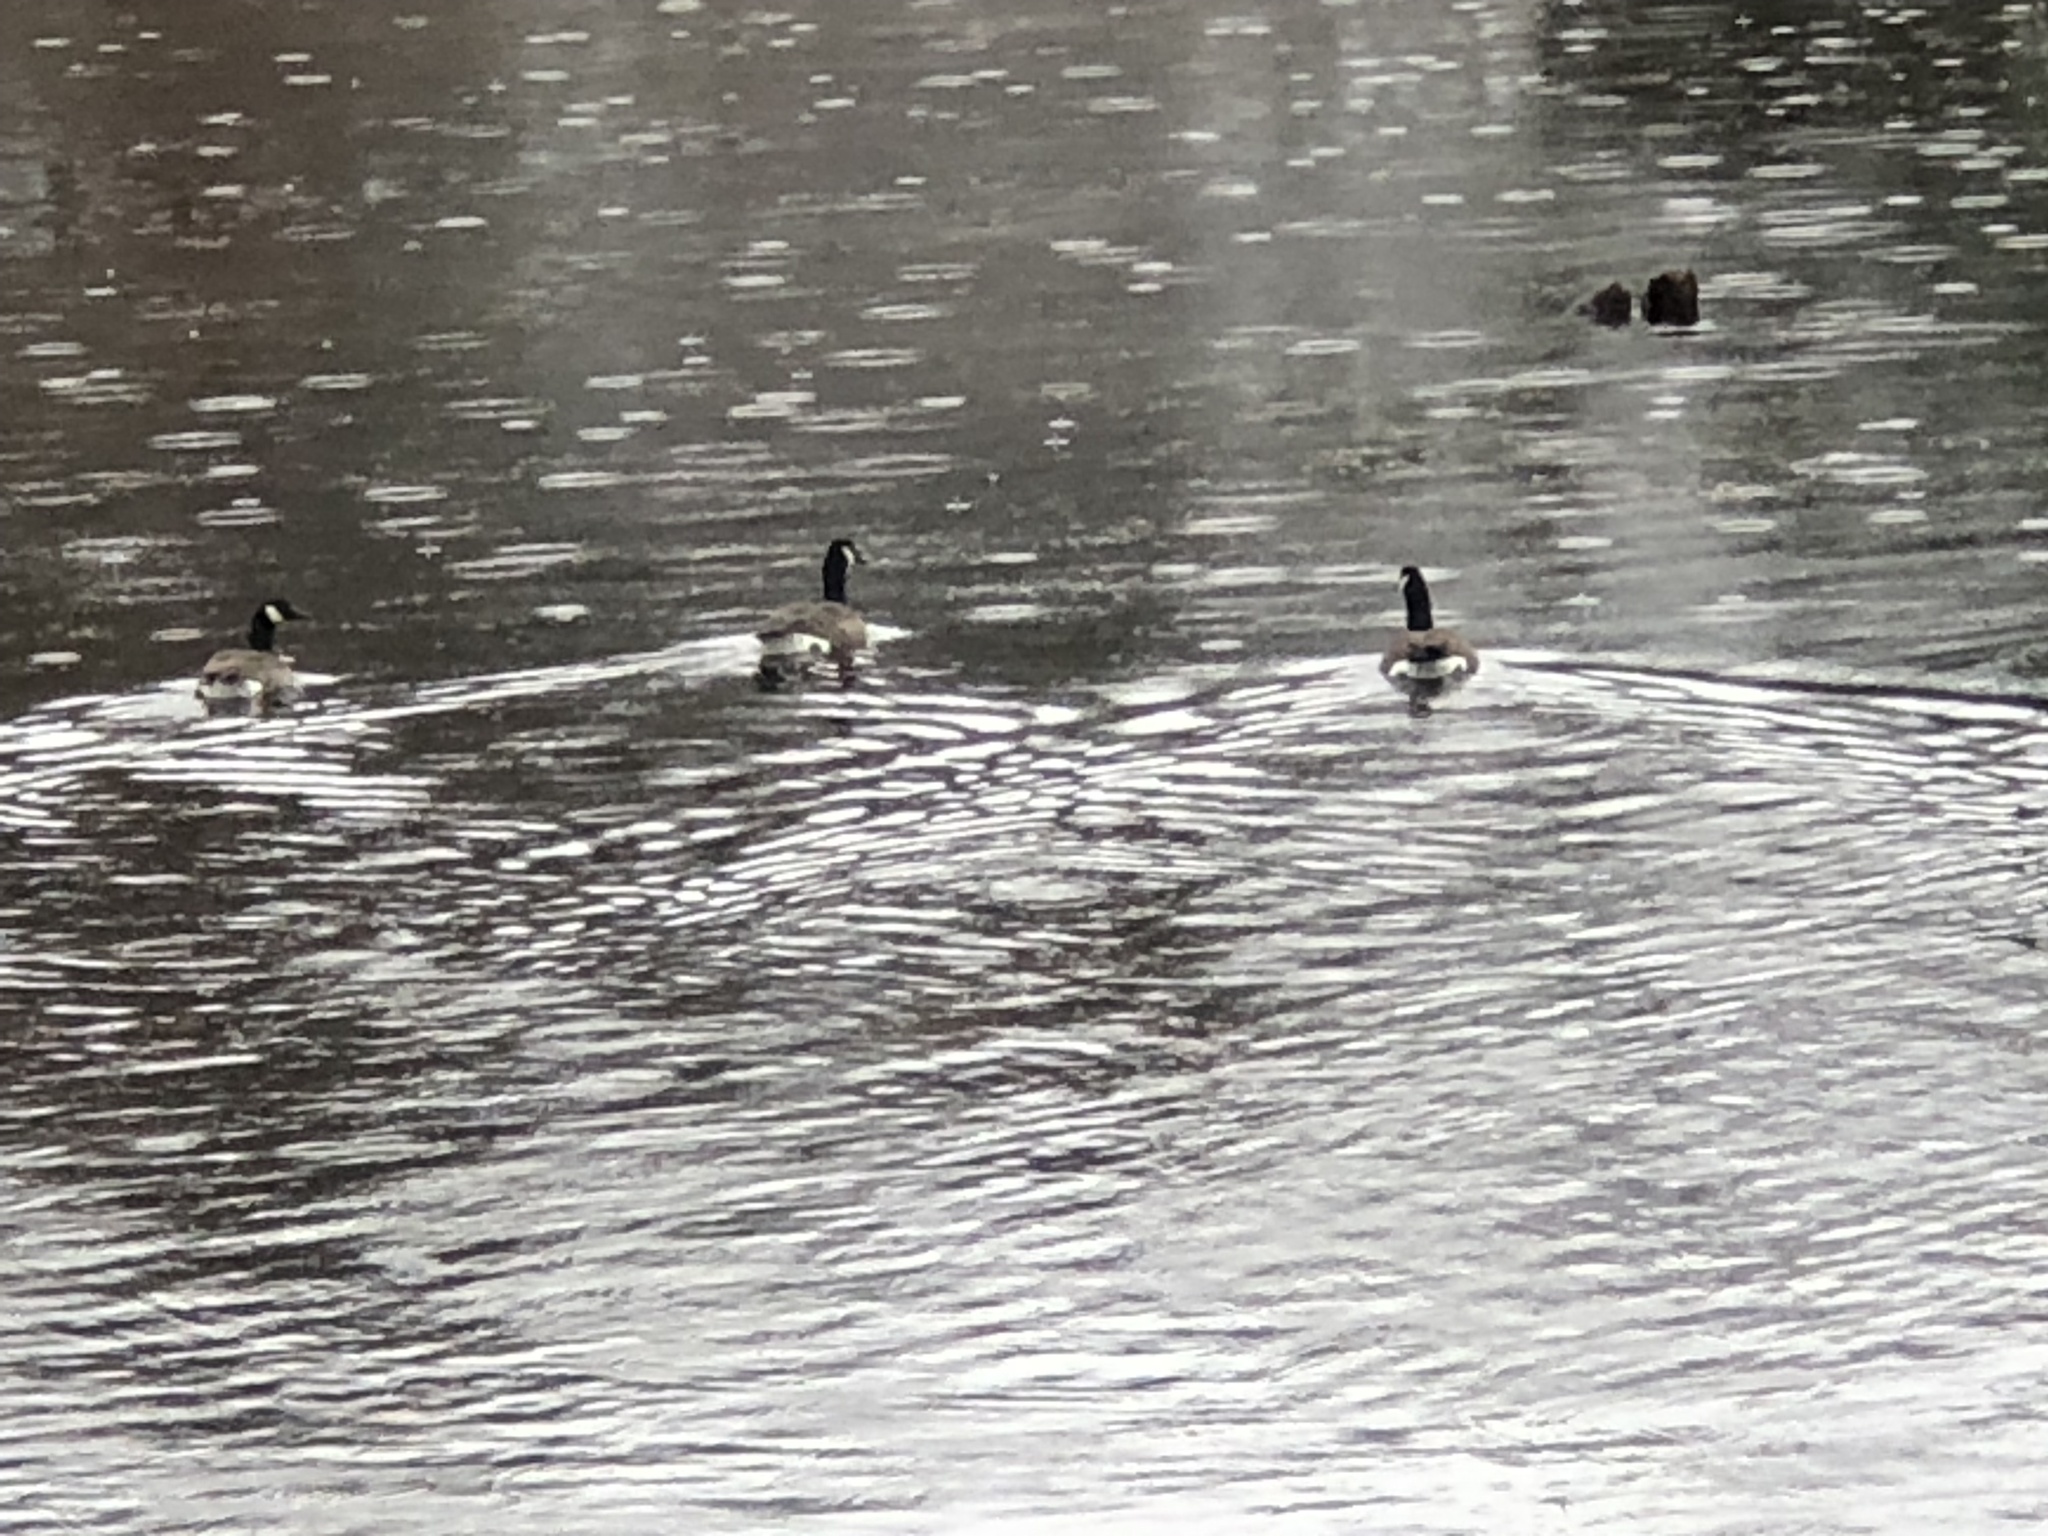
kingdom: Animalia
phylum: Chordata
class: Aves
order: Anseriformes
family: Anatidae
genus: Branta
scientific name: Branta canadensis
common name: Canada goose
